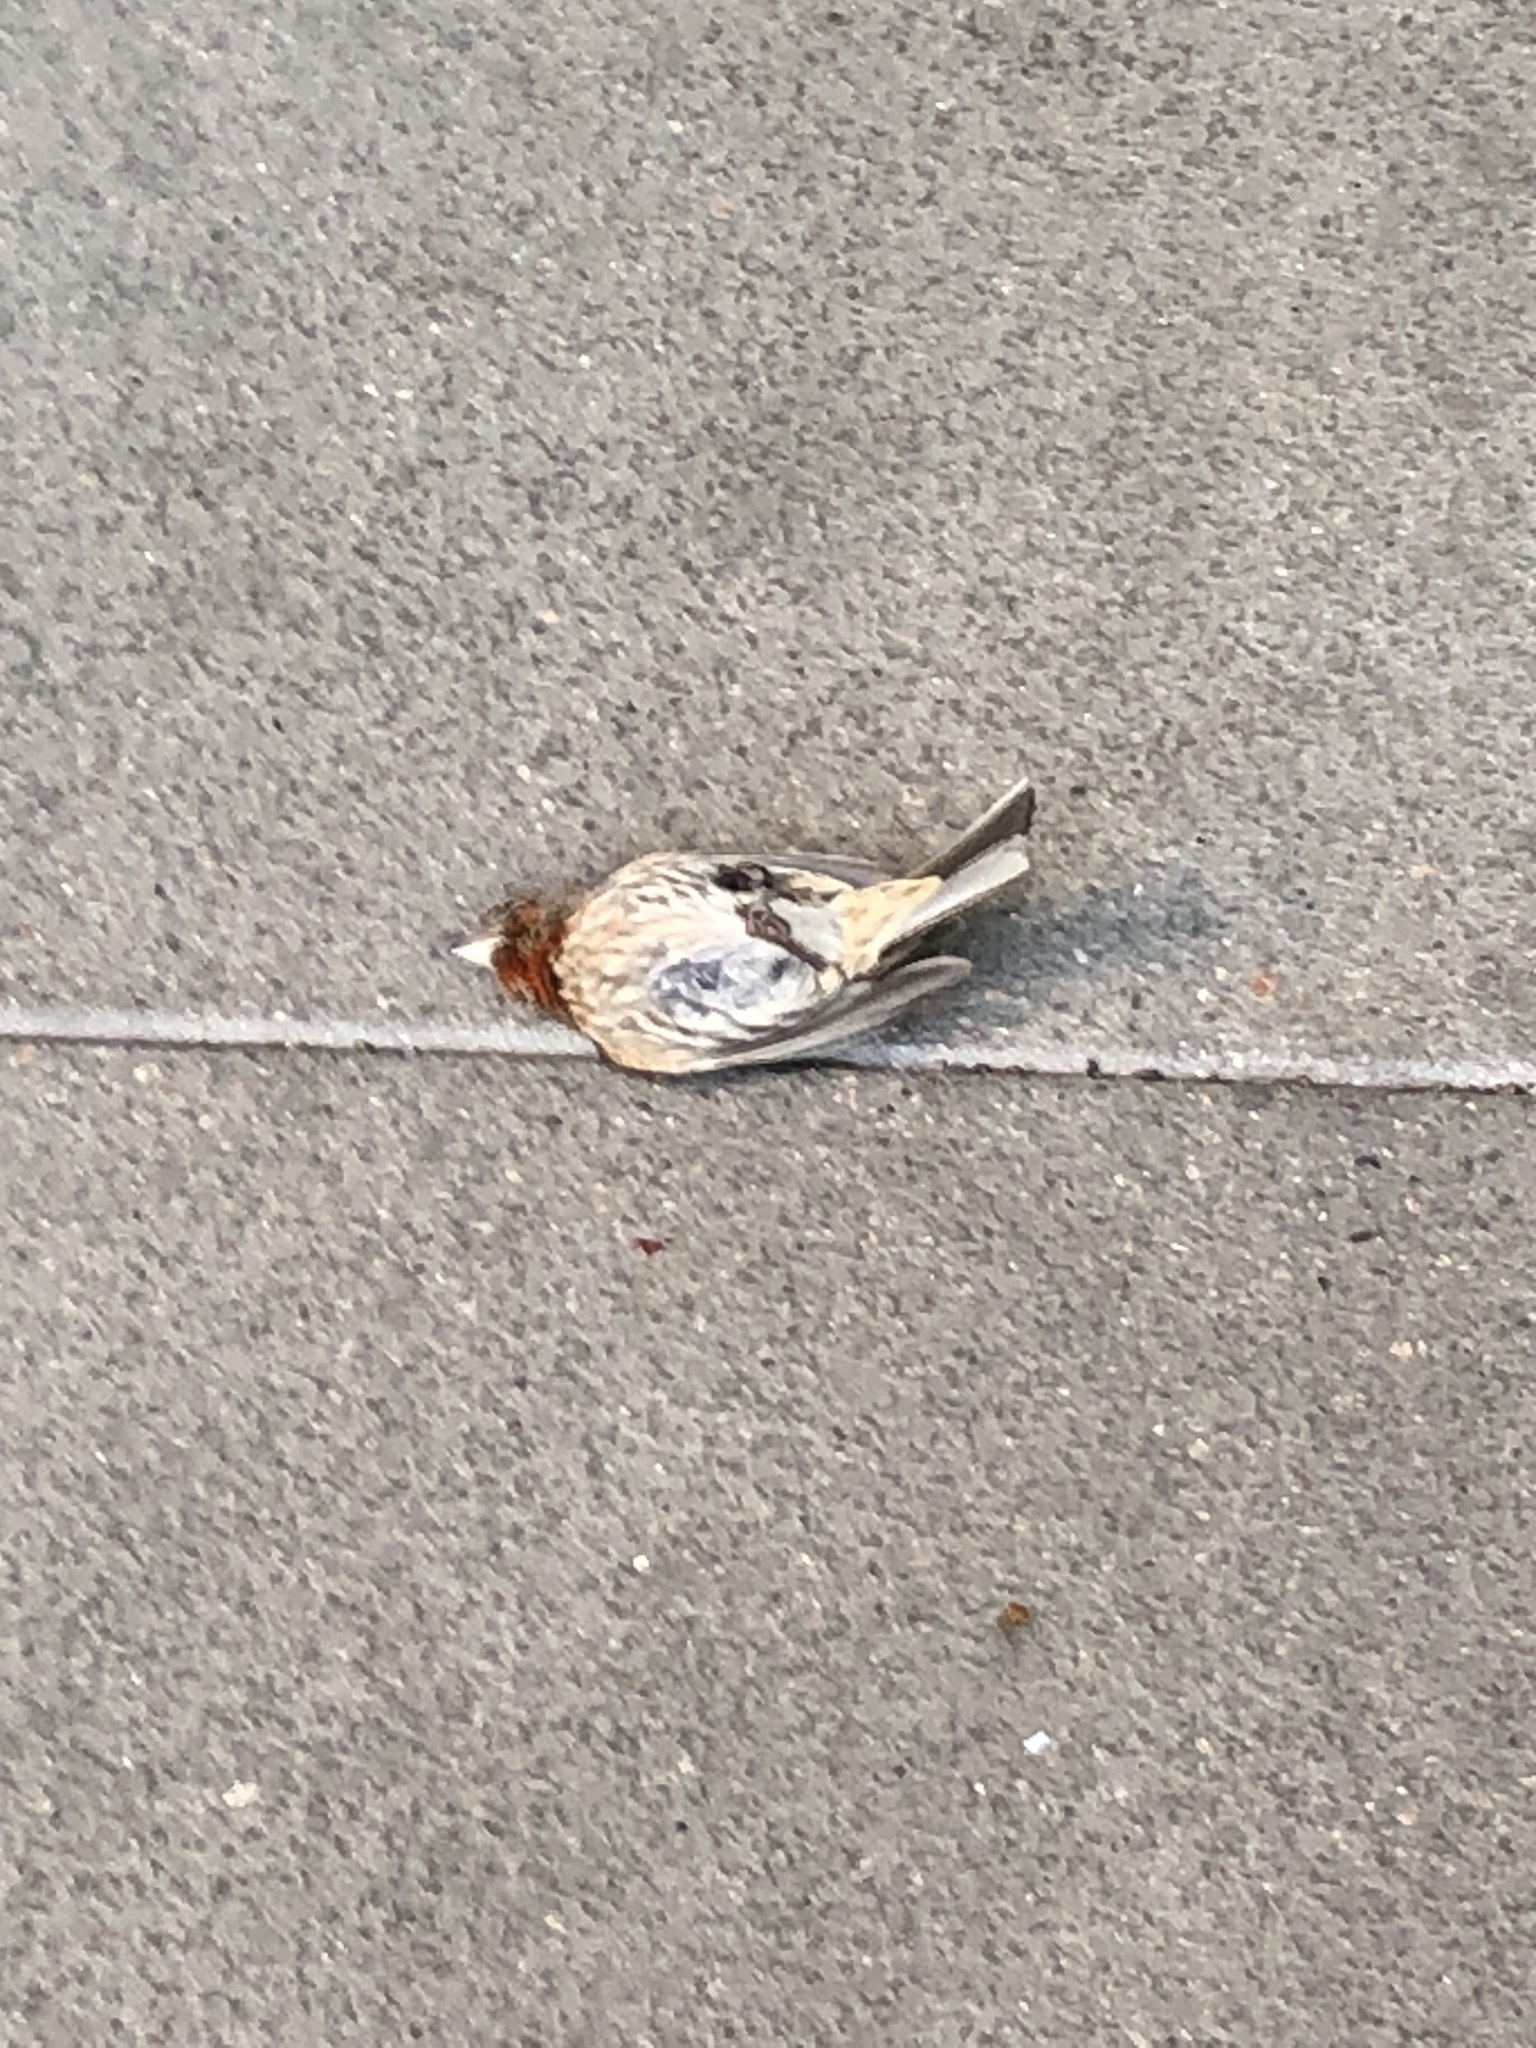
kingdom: Animalia
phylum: Chordata
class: Aves
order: Passeriformes
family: Fringillidae
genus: Haemorhous
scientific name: Haemorhous mexicanus
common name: House finch
